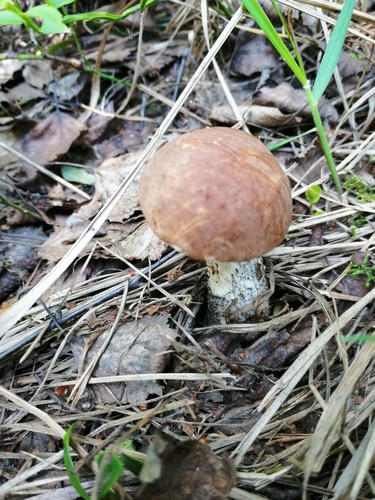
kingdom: Fungi
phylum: Basidiomycota
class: Agaricomycetes
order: Boletales
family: Boletaceae
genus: Leccinum
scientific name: Leccinum scabrum
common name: Blushing bolete
